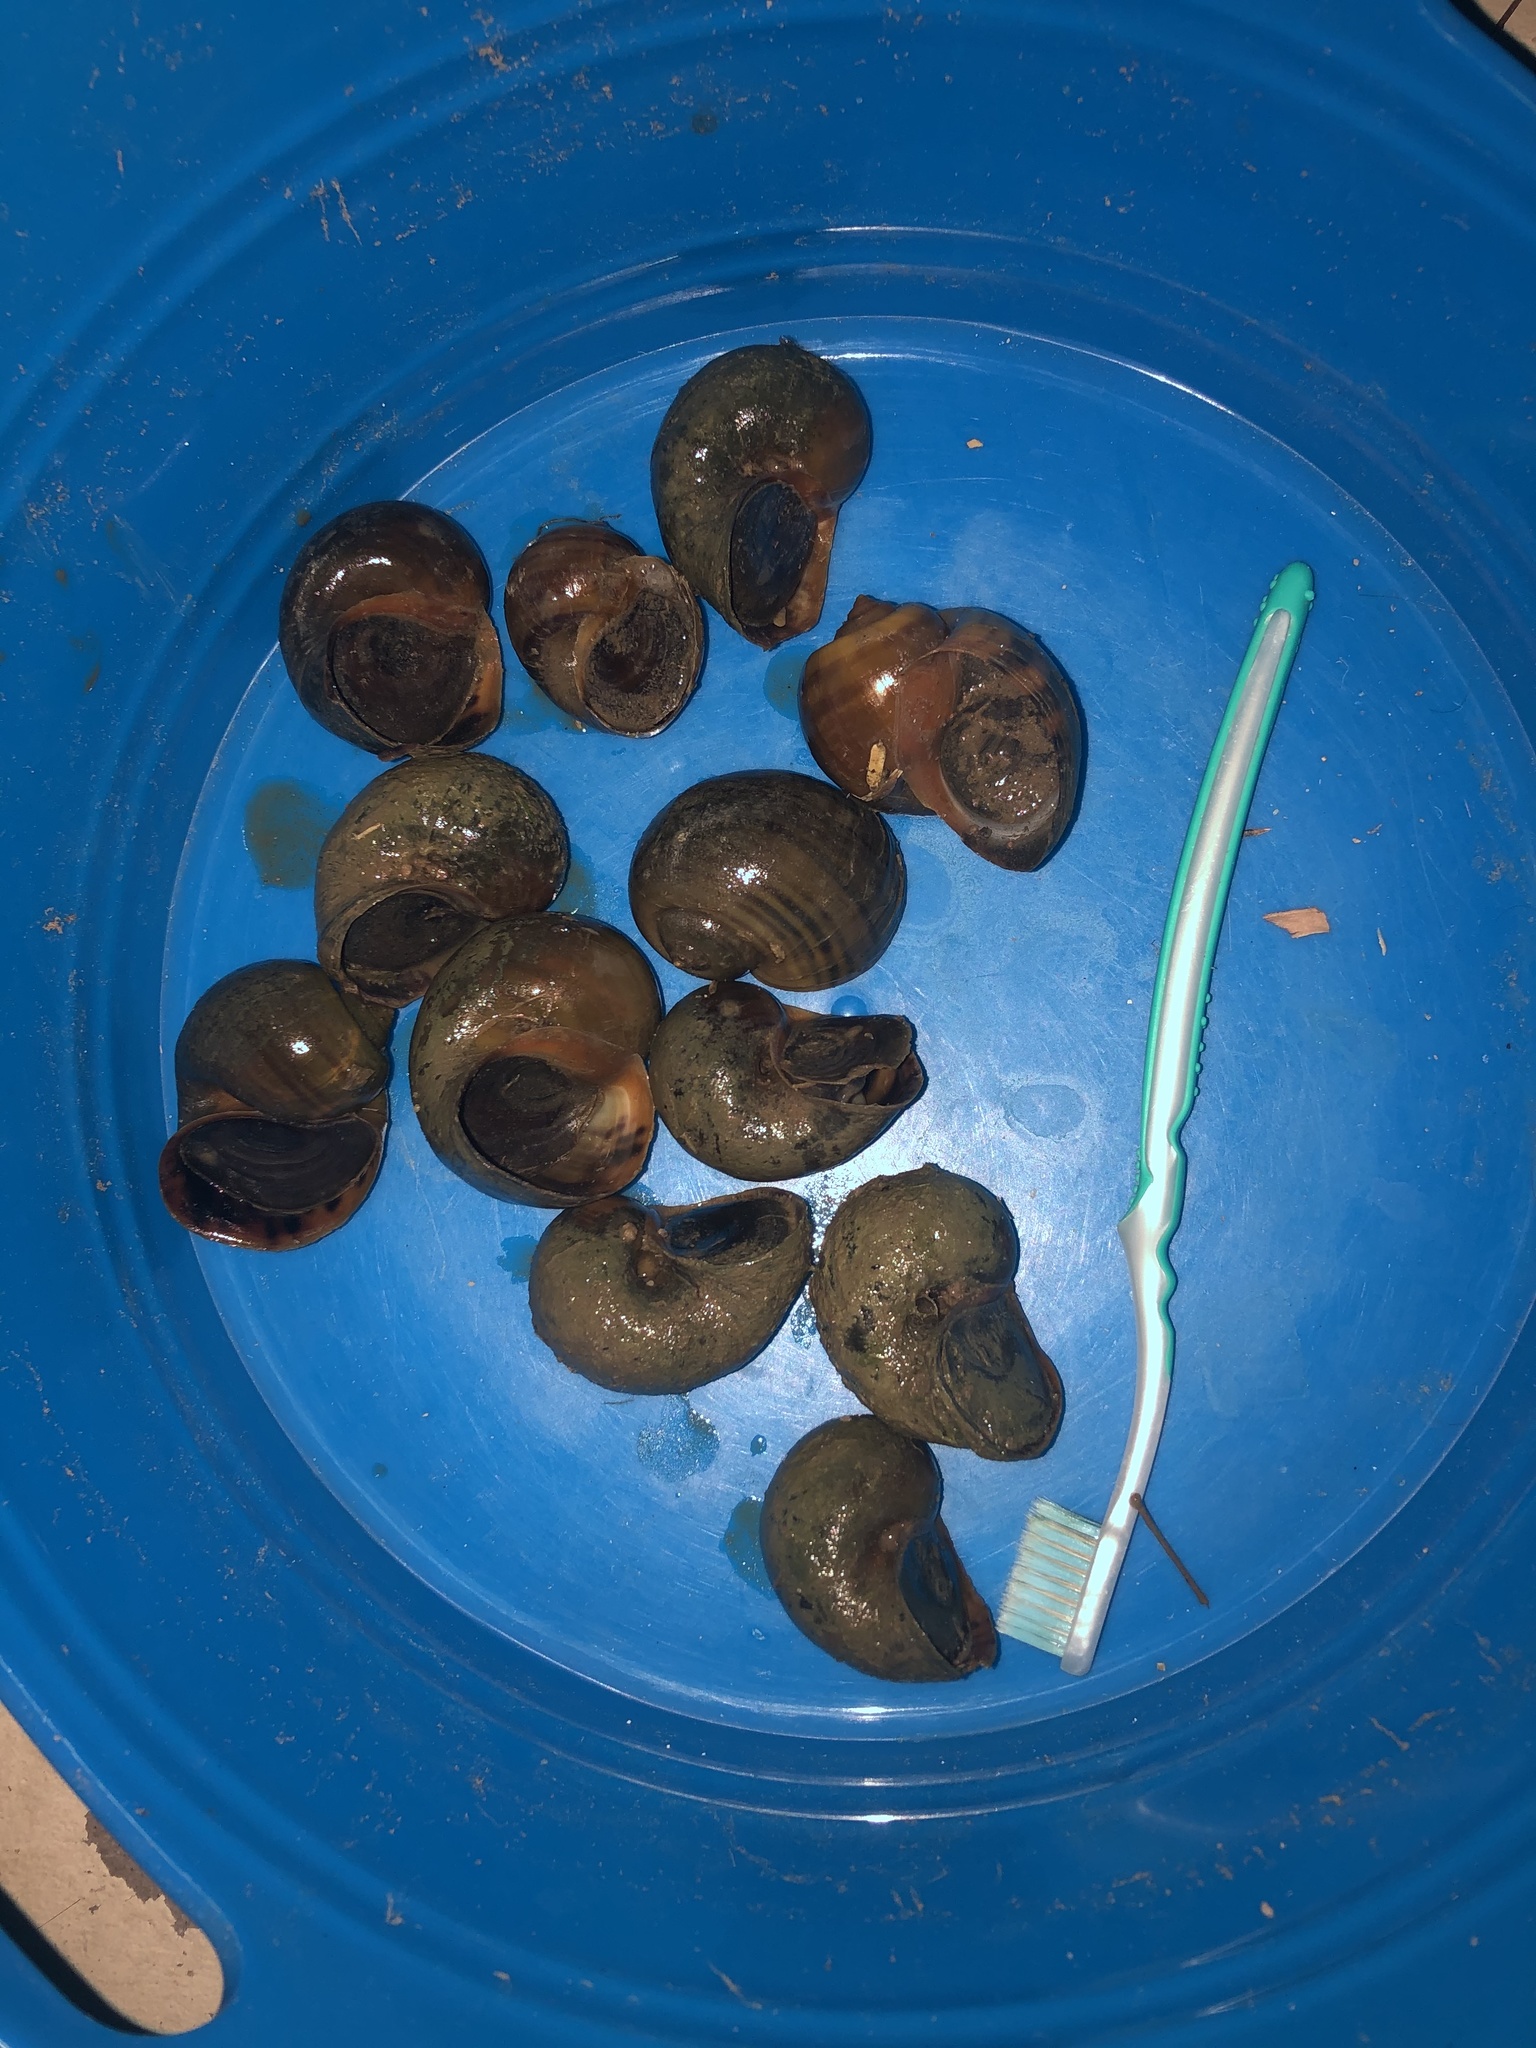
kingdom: Animalia
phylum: Mollusca
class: Gastropoda
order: Architaenioglossa
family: Ampullariidae
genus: Pomacea
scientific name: Pomacea canaliculata
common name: Channeled applesnail
